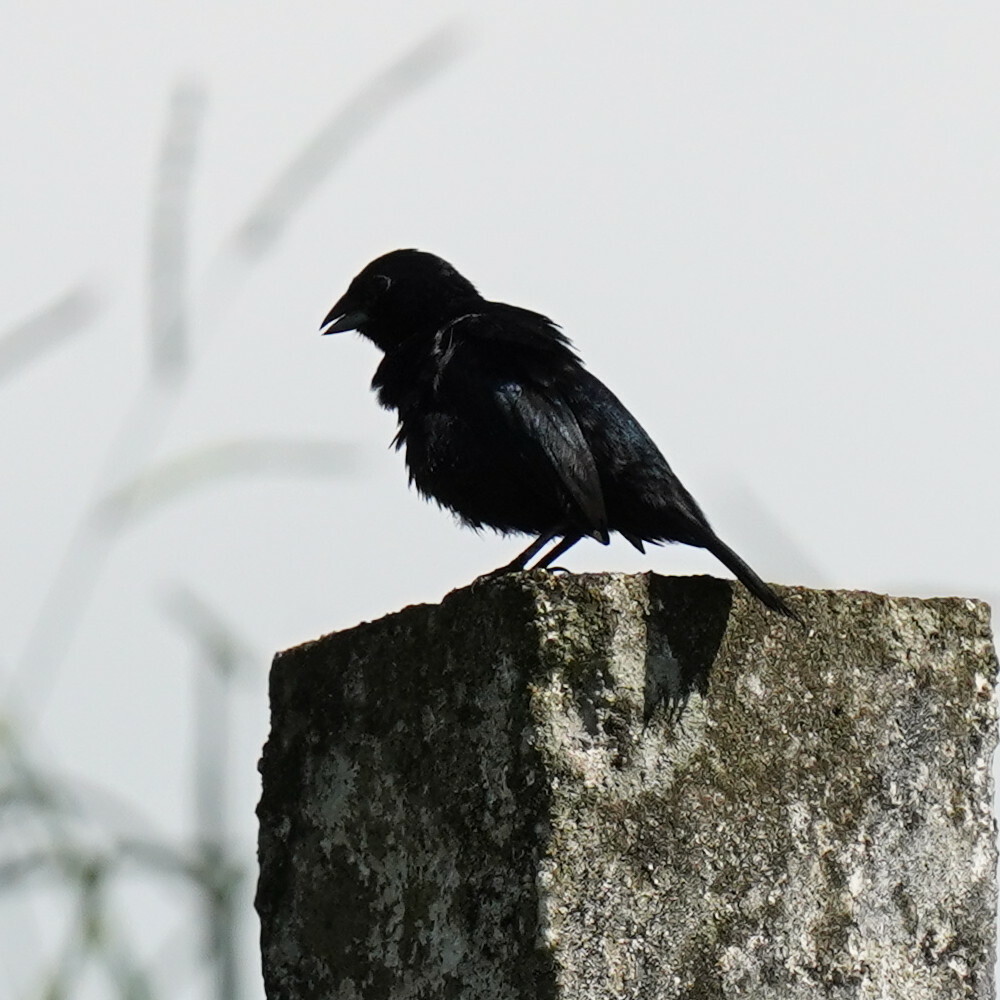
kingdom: Animalia
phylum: Chordata
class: Aves
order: Passeriformes
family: Thraupidae
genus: Volatinia
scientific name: Volatinia jacarina
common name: Blue-black grassquit
